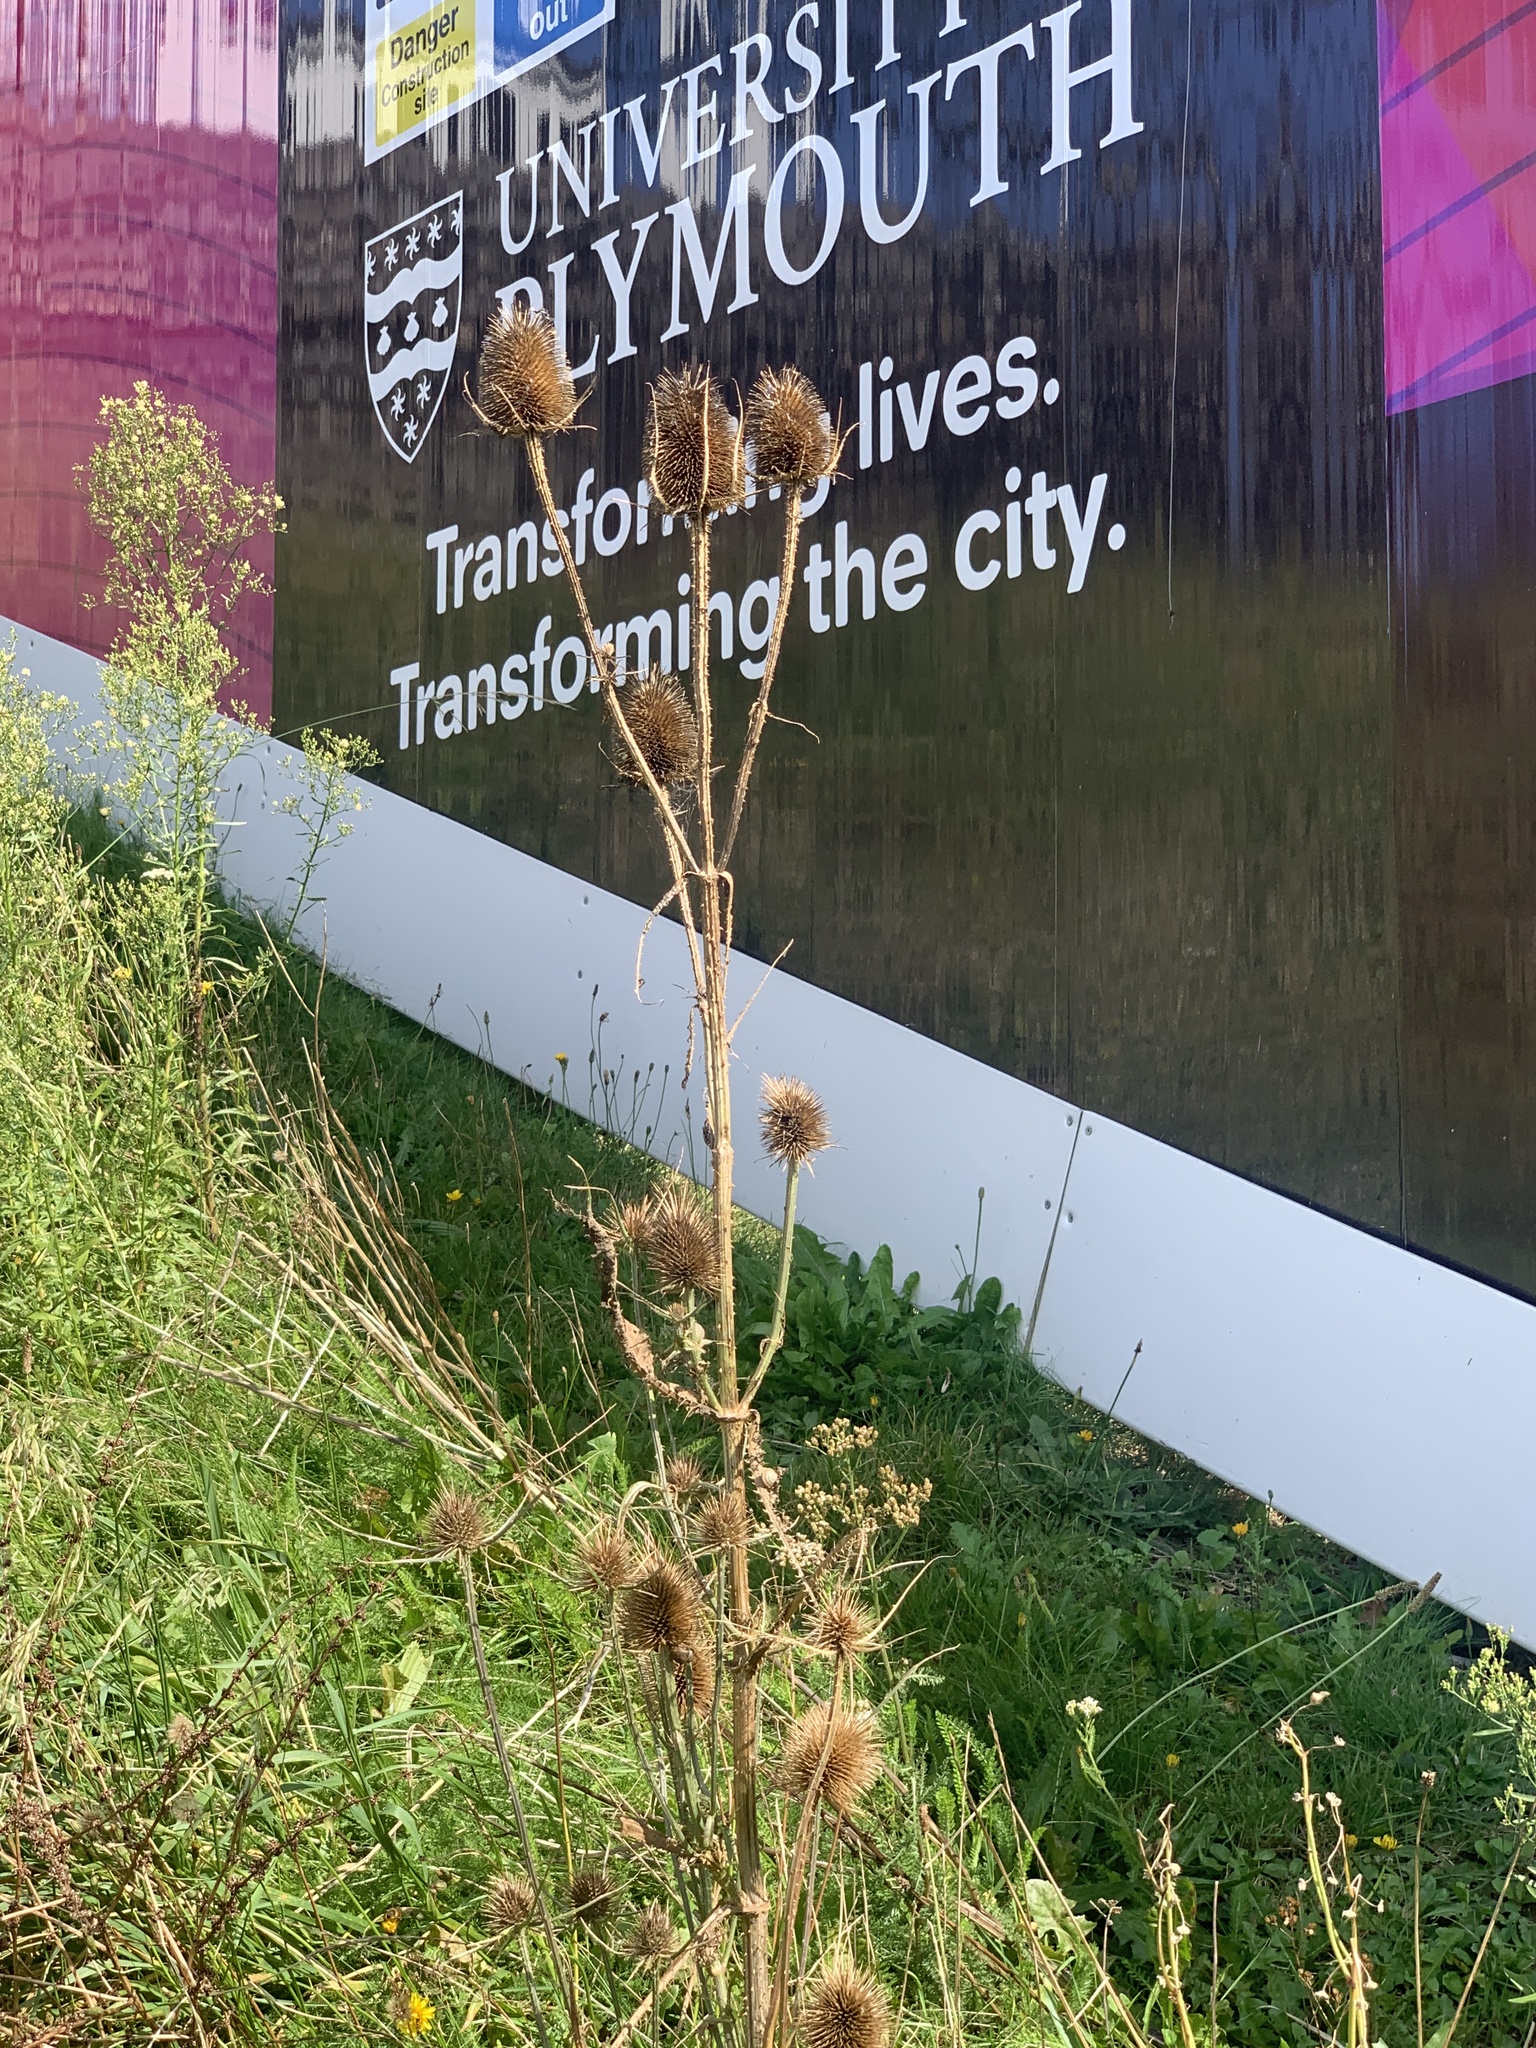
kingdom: Plantae
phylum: Tracheophyta
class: Magnoliopsida
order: Dipsacales
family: Caprifoliaceae
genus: Dipsacus
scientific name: Dipsacus fullonum
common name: Teasel
